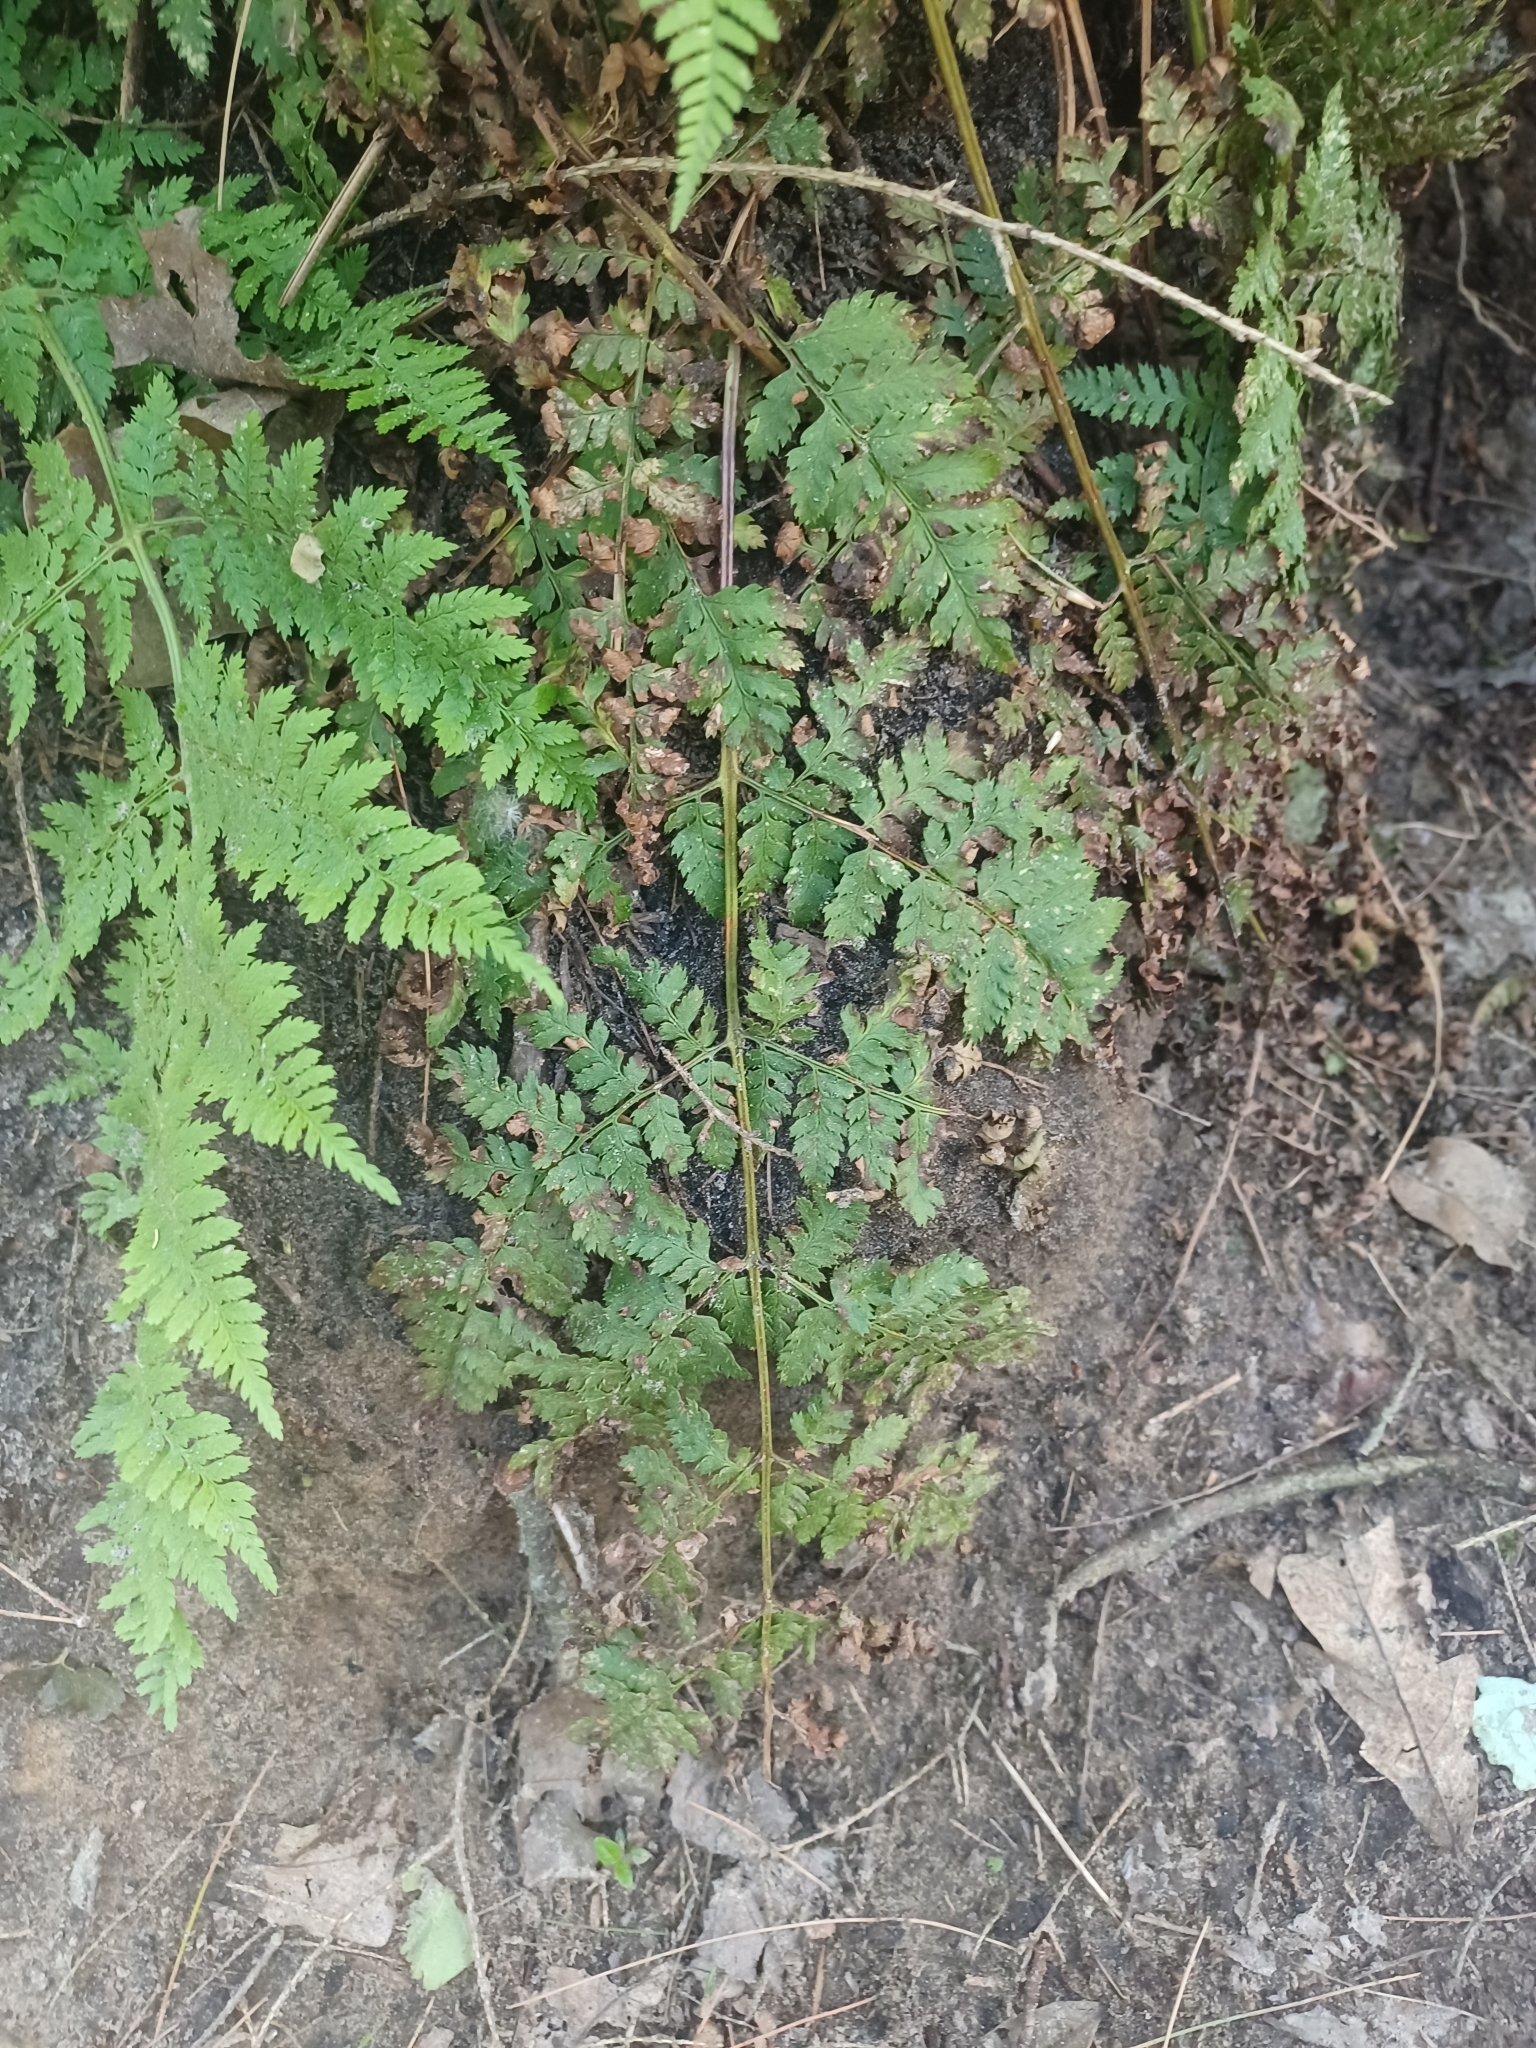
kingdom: Plantae
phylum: Tracheophyta
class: Polypodiopsida
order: Polypodiales
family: Dryopteridaceae
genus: Dryopteris
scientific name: Dryopteris intermedia
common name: Evergreen wood fern
